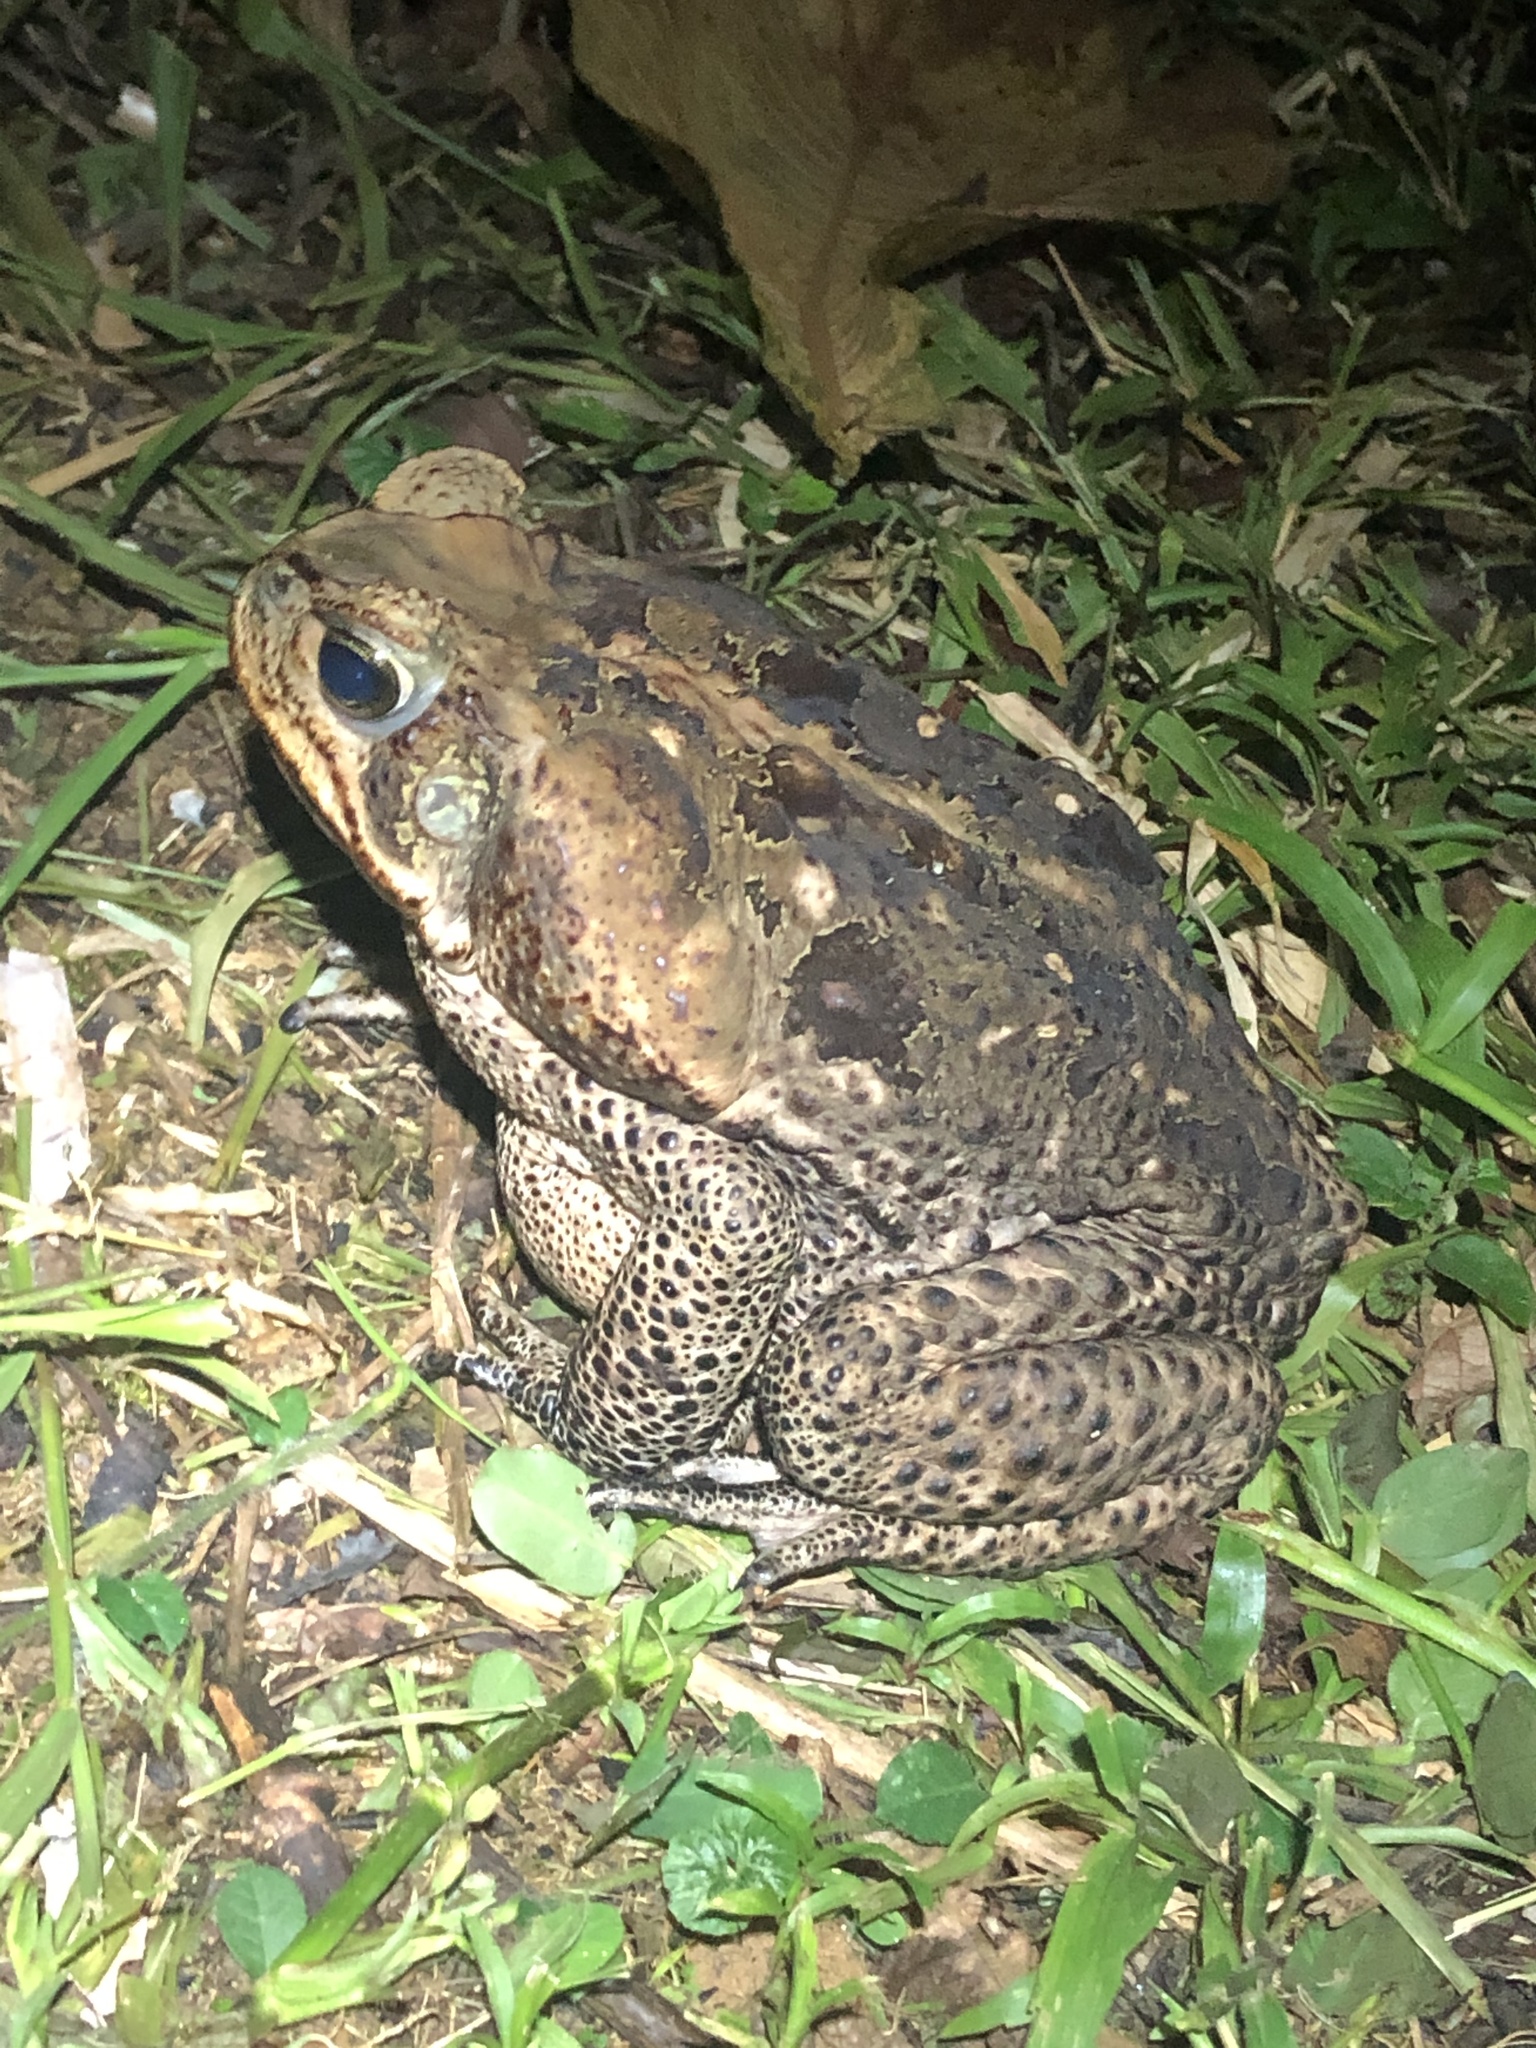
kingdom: Animalia
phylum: Chordata
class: Amphibia
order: Anura
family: Bufonidae
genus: Rhinella
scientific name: Rhinella marina
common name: Cane toad
